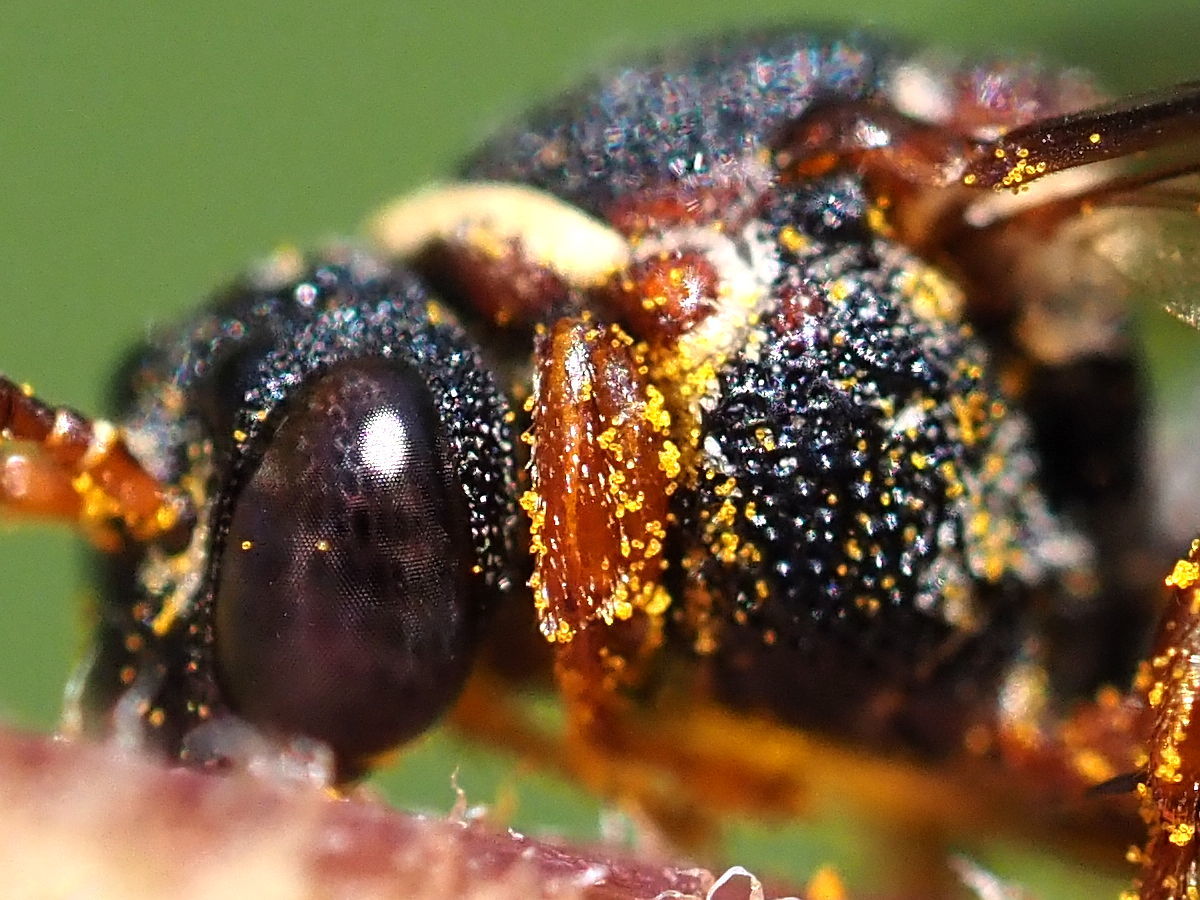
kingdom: Animalia
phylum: Arthropoda
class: Insecta
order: Hymenoptera
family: Apidae
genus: Epeolus
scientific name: Epeolus bifasciatus
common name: Two-banded cellophane-cuckoo
